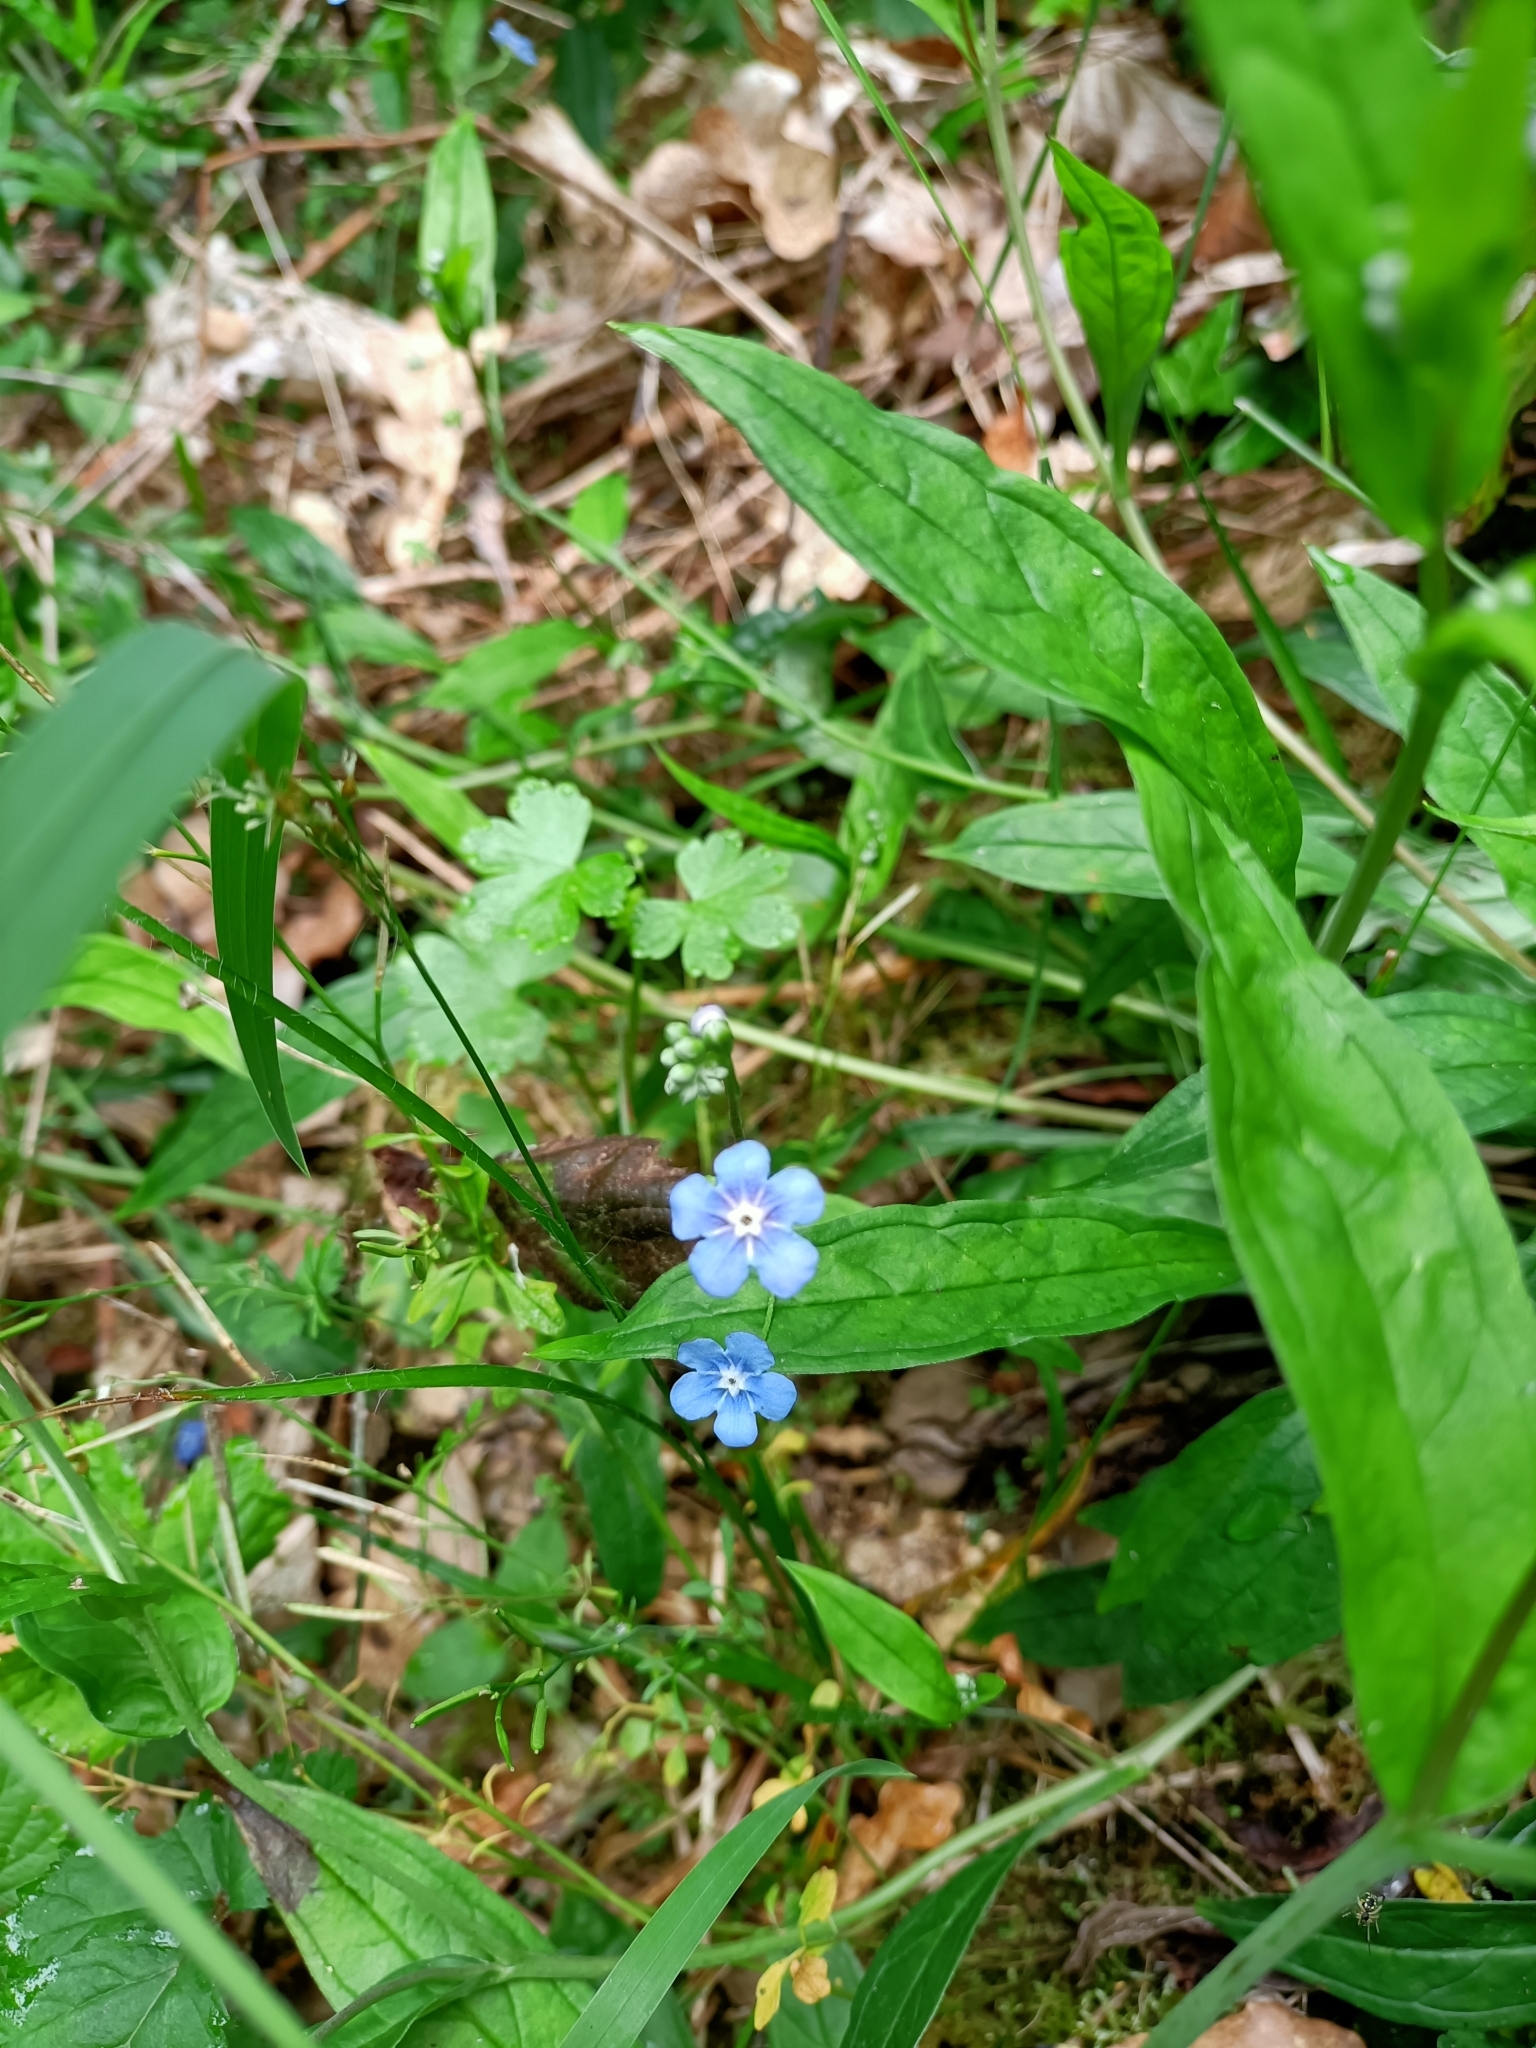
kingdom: Plantae
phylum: Tracheophyta
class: Magnoliopsida
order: Boraginales
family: Boraginaceae
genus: Omphalodes
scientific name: Omphalodes nitida
